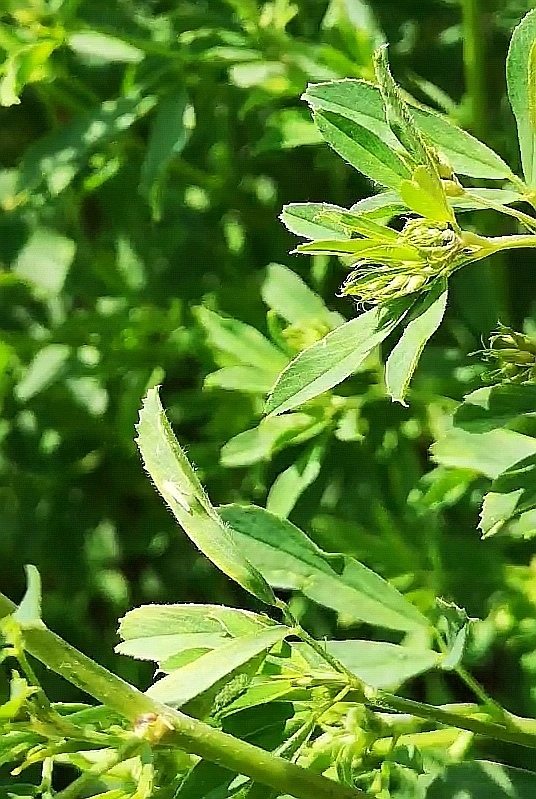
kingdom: Plantae
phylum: Tracheophyta
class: Magnoliopsida
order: Fabales
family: Fabaceae
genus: Medicago
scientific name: Medicago
